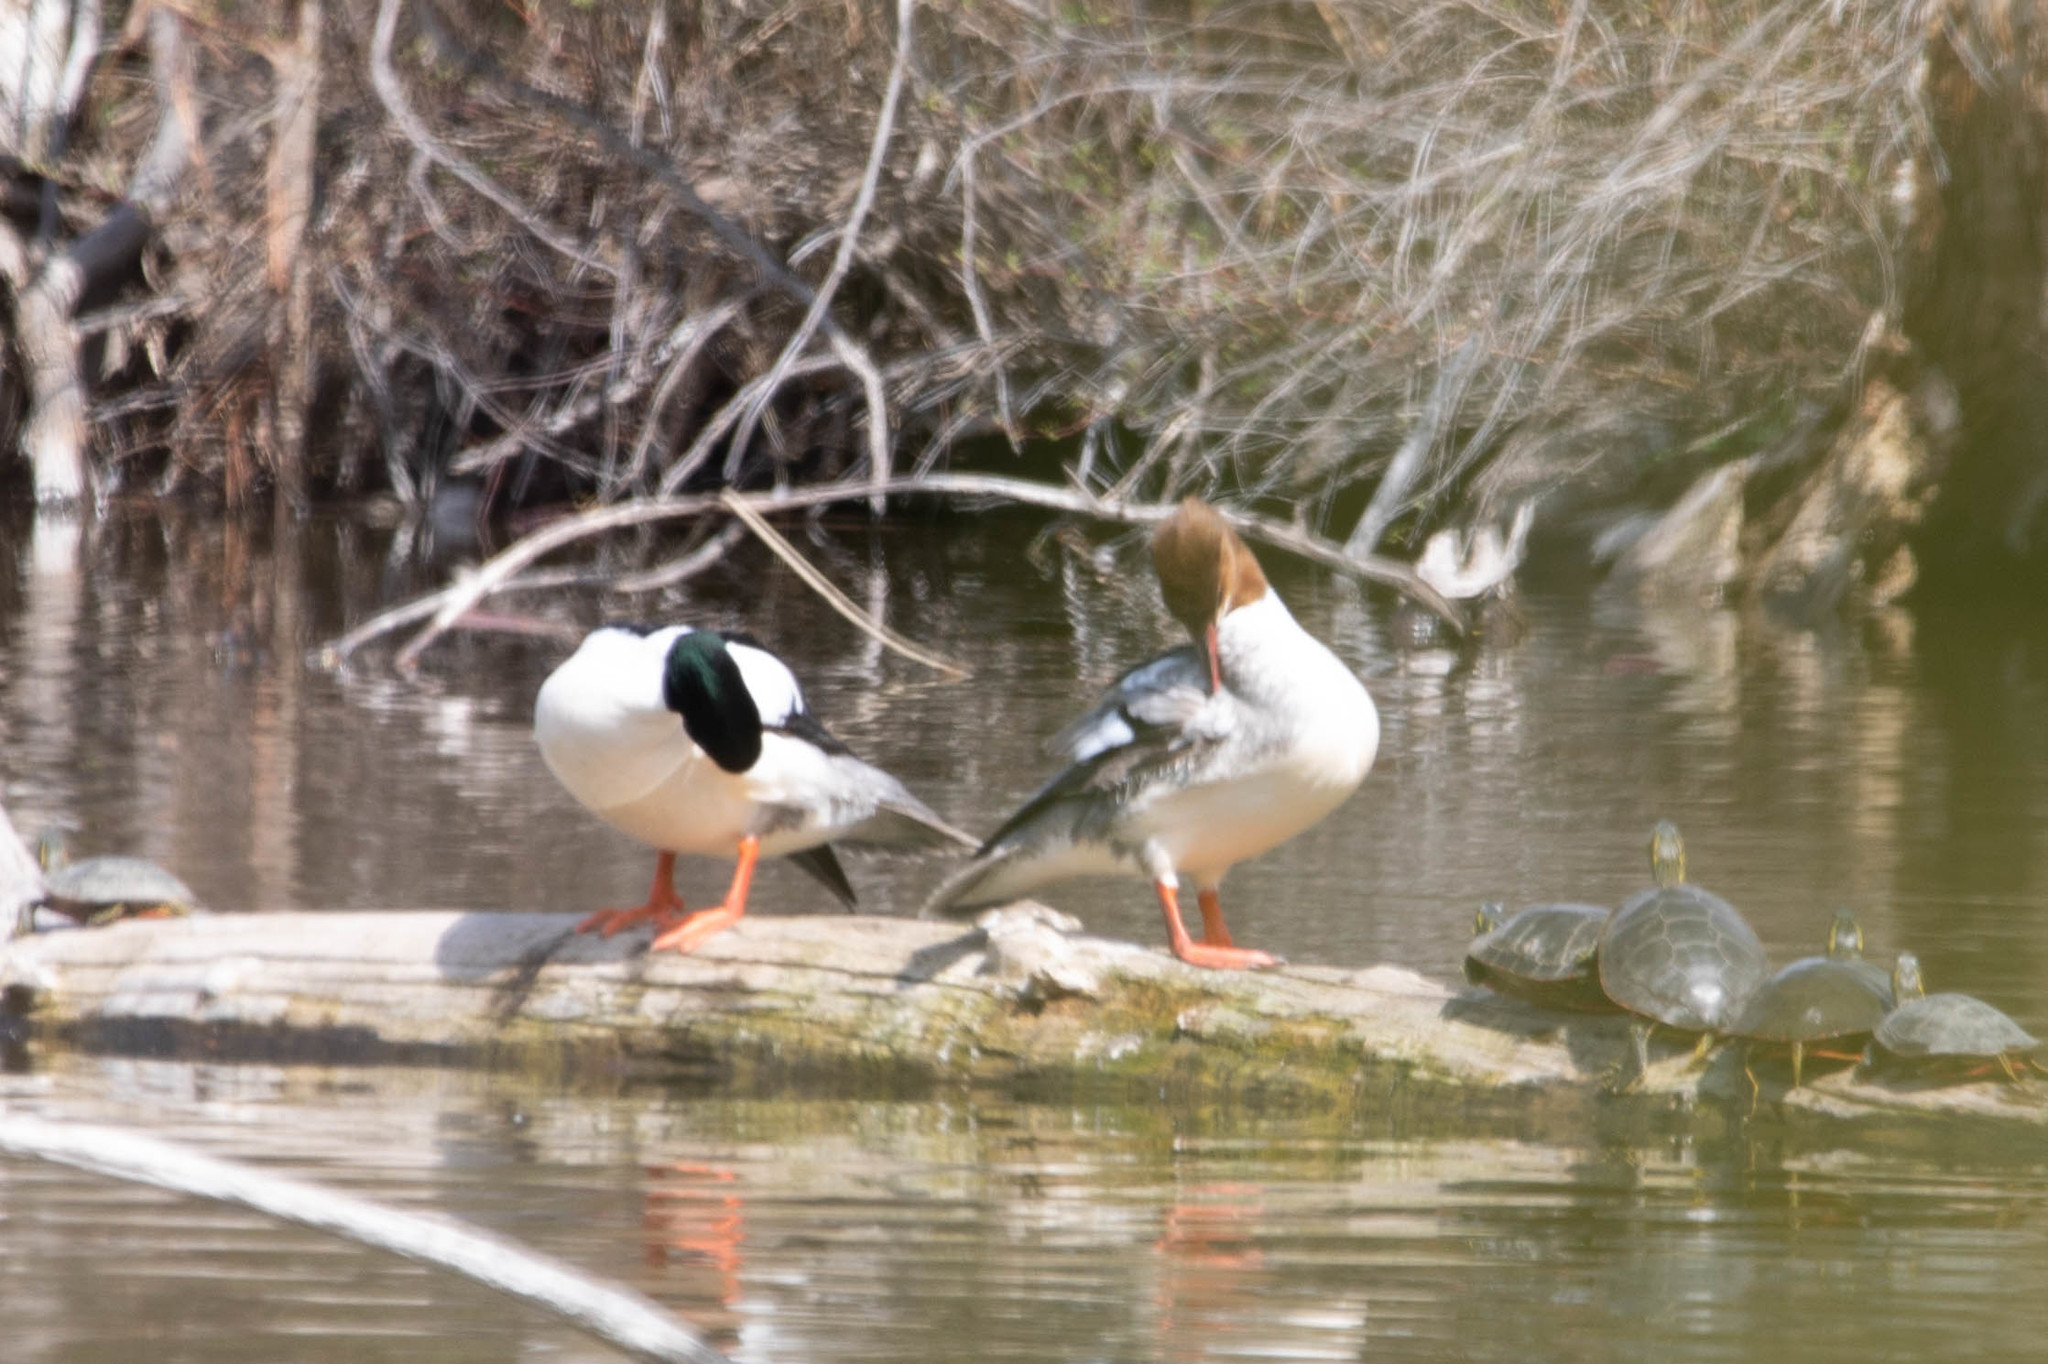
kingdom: Animalia
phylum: Chordata
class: Aves
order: Anseriformes
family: Anatidae
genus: Mergus
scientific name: Mergus merganser
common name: Common merganser
